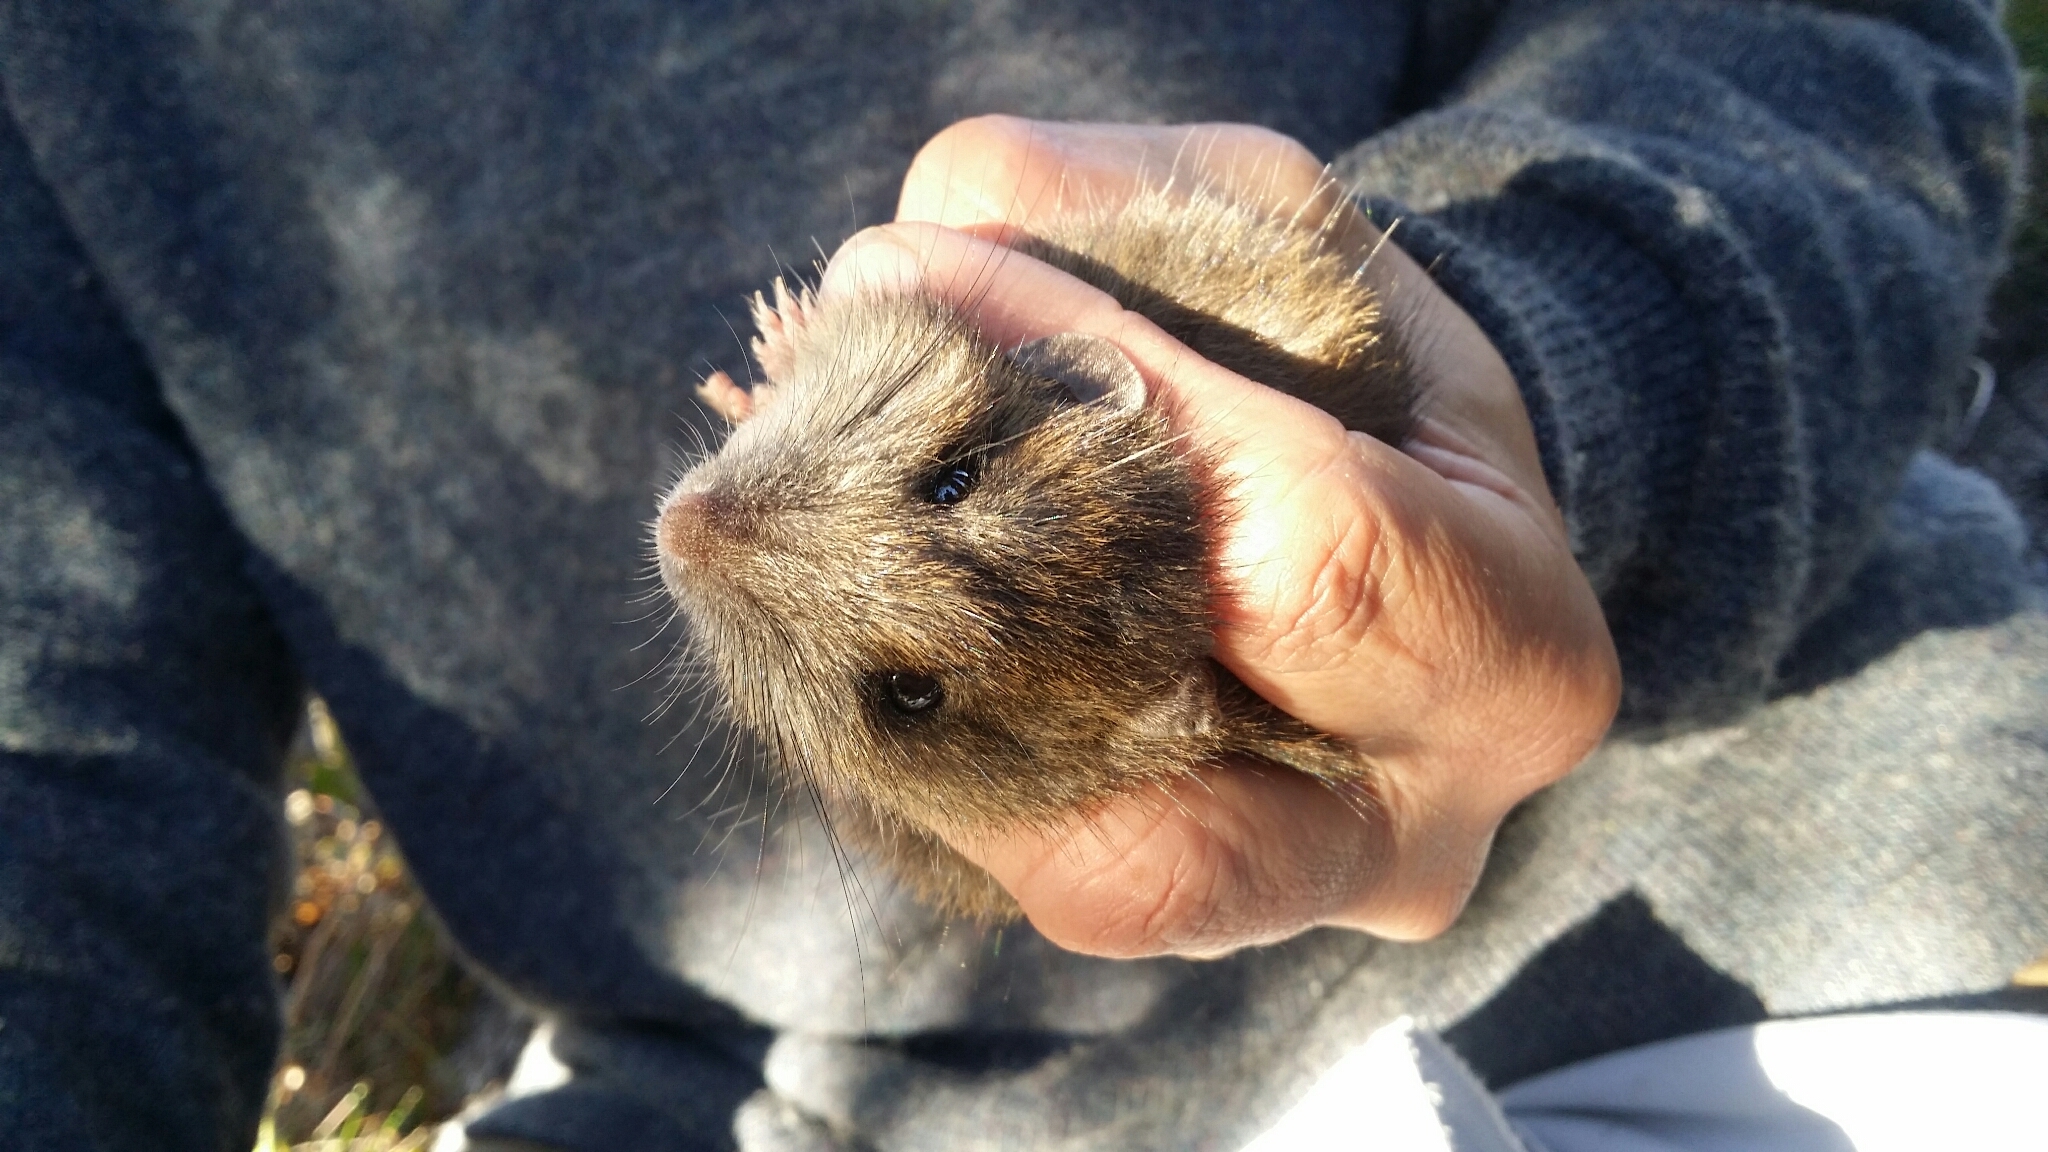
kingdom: Animalia
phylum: Chordata
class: Mammalia
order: Rodentia
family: Muridae
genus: Rattus
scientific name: Rattus fuscipes
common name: Australian bush rat
